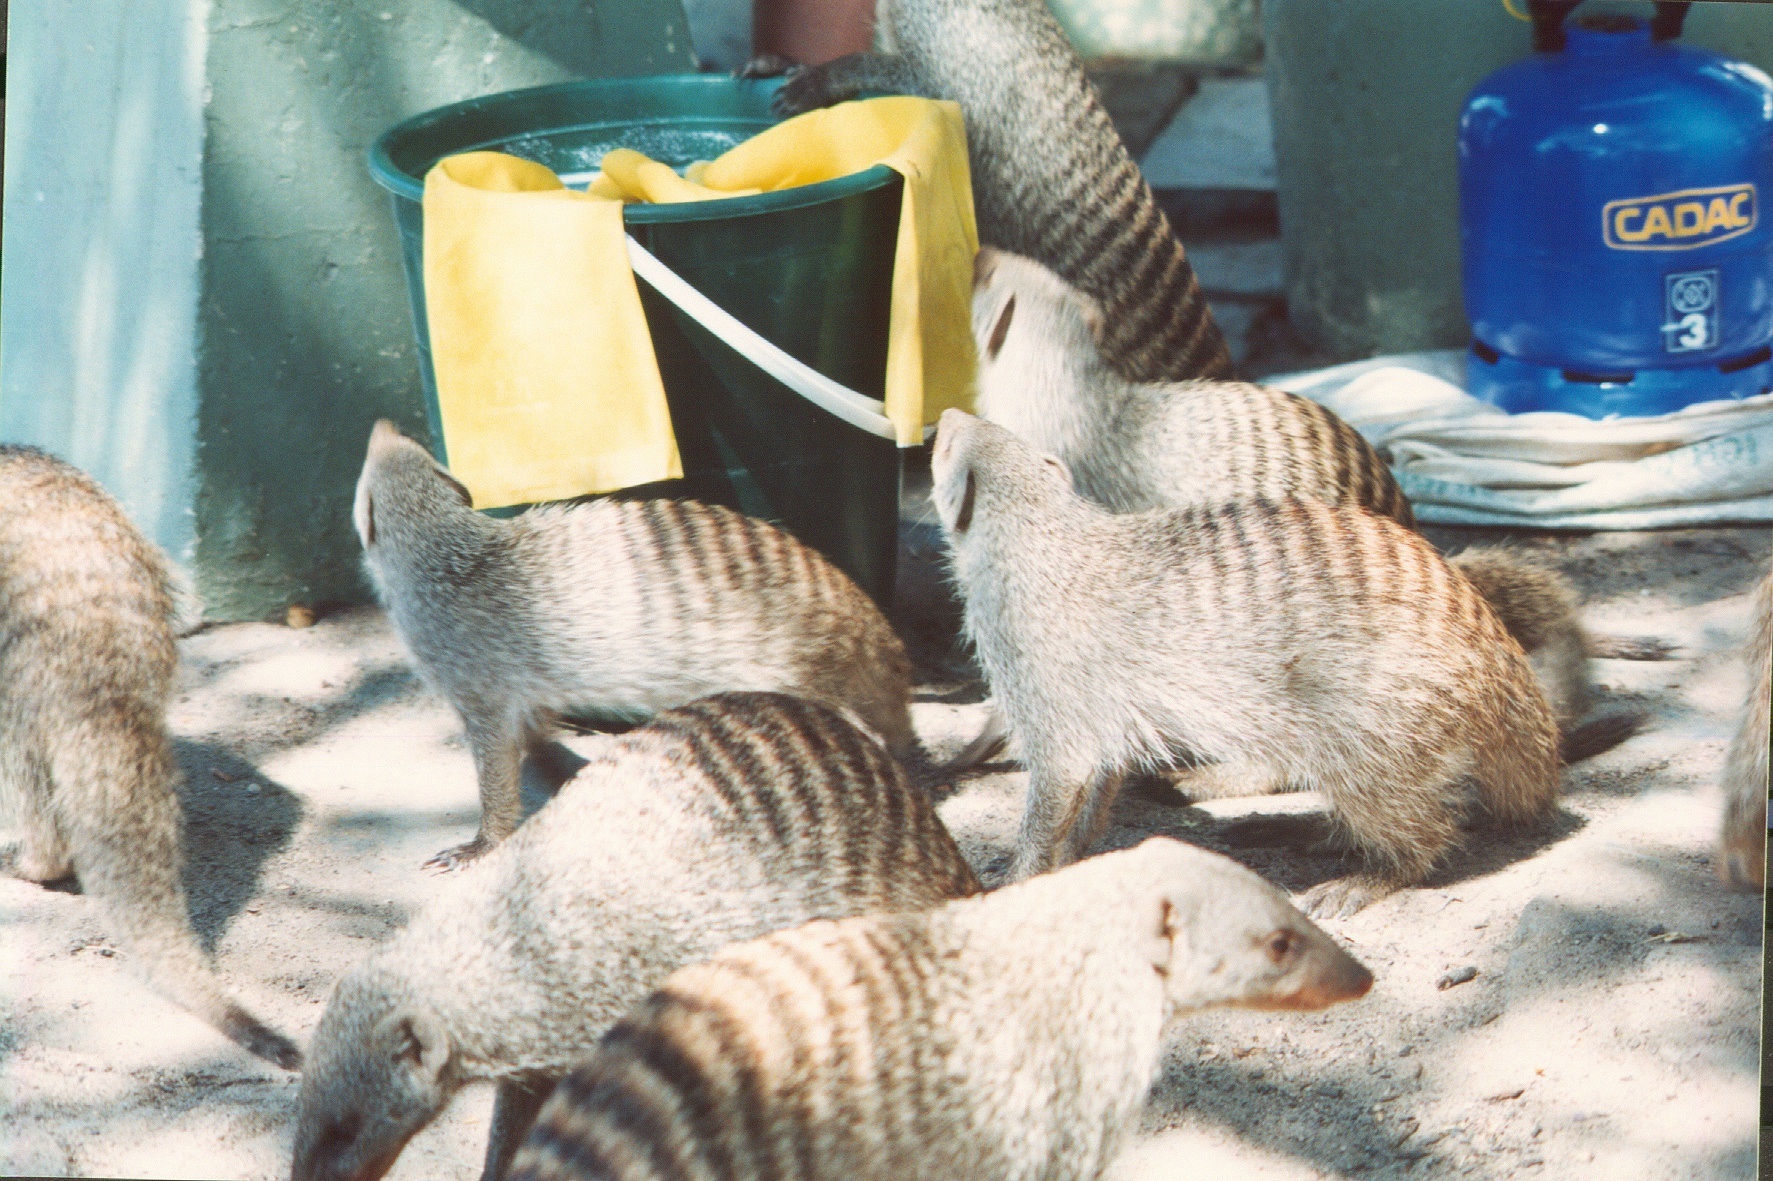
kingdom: Animalia
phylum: Chordata
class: Mammalia
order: Carnivora
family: Herpestidae
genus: Mungos
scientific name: Mungos mungo
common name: Banded mongoose
